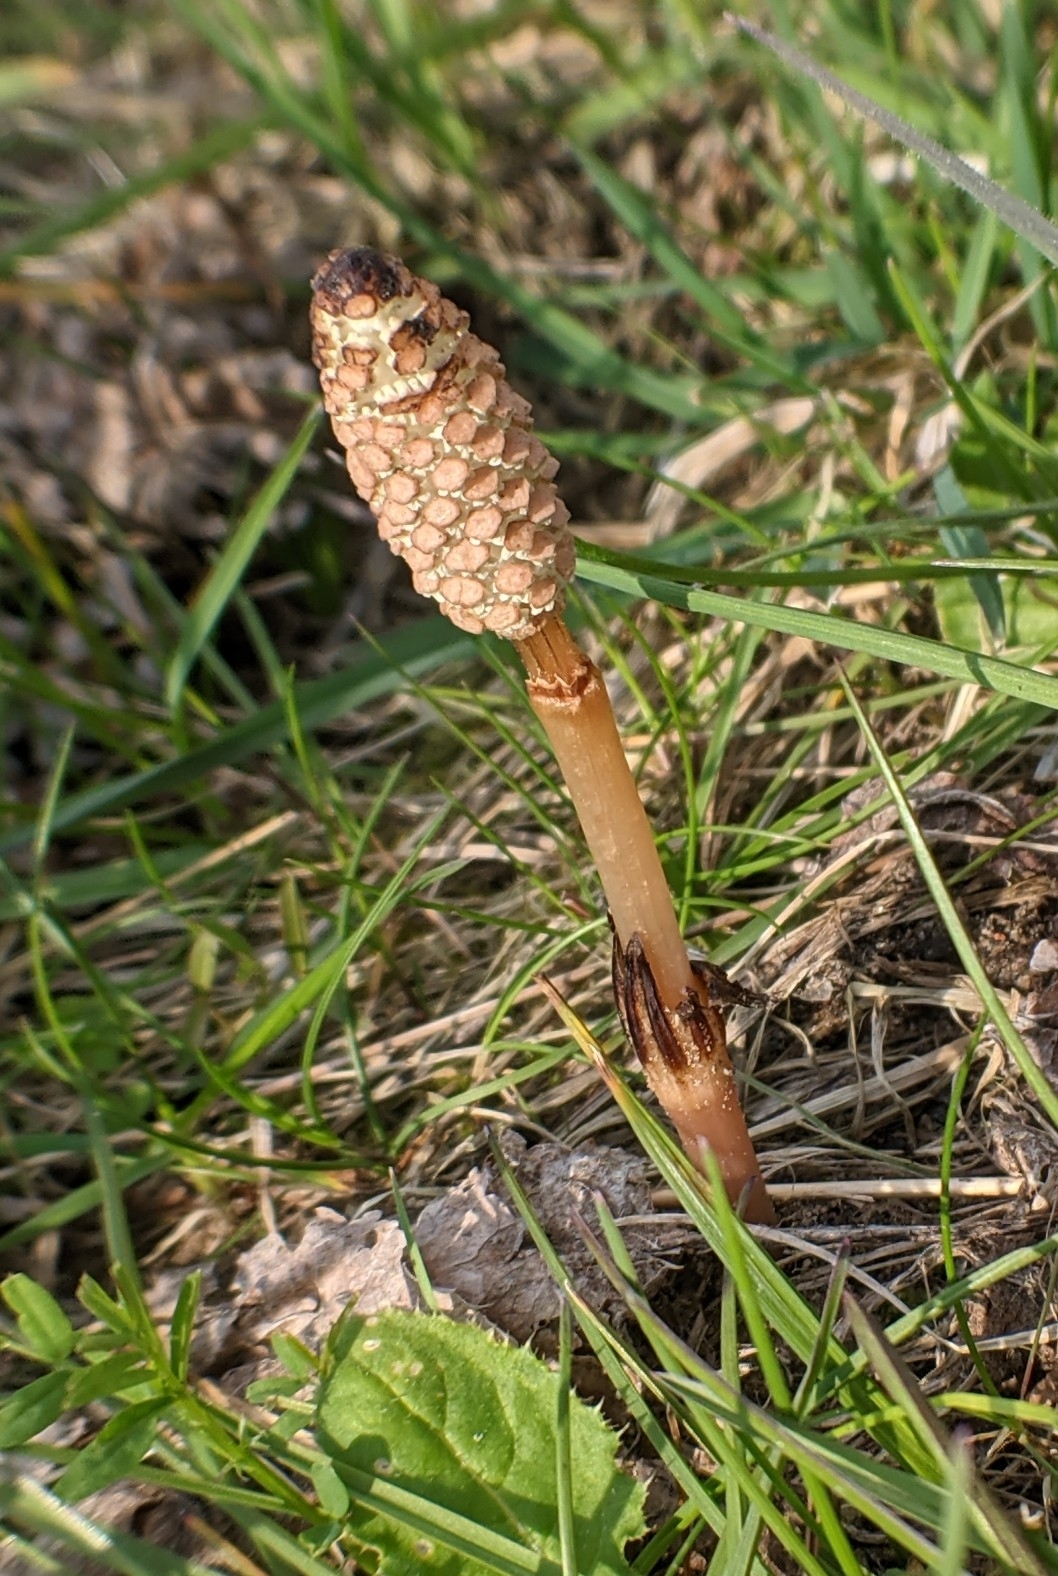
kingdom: Plantae
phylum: Tracheophyta
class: Polypodiopsida
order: Equisetales
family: Equisetaceae
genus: Equisetum
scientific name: Equisetum arvense
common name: Field horsetail
